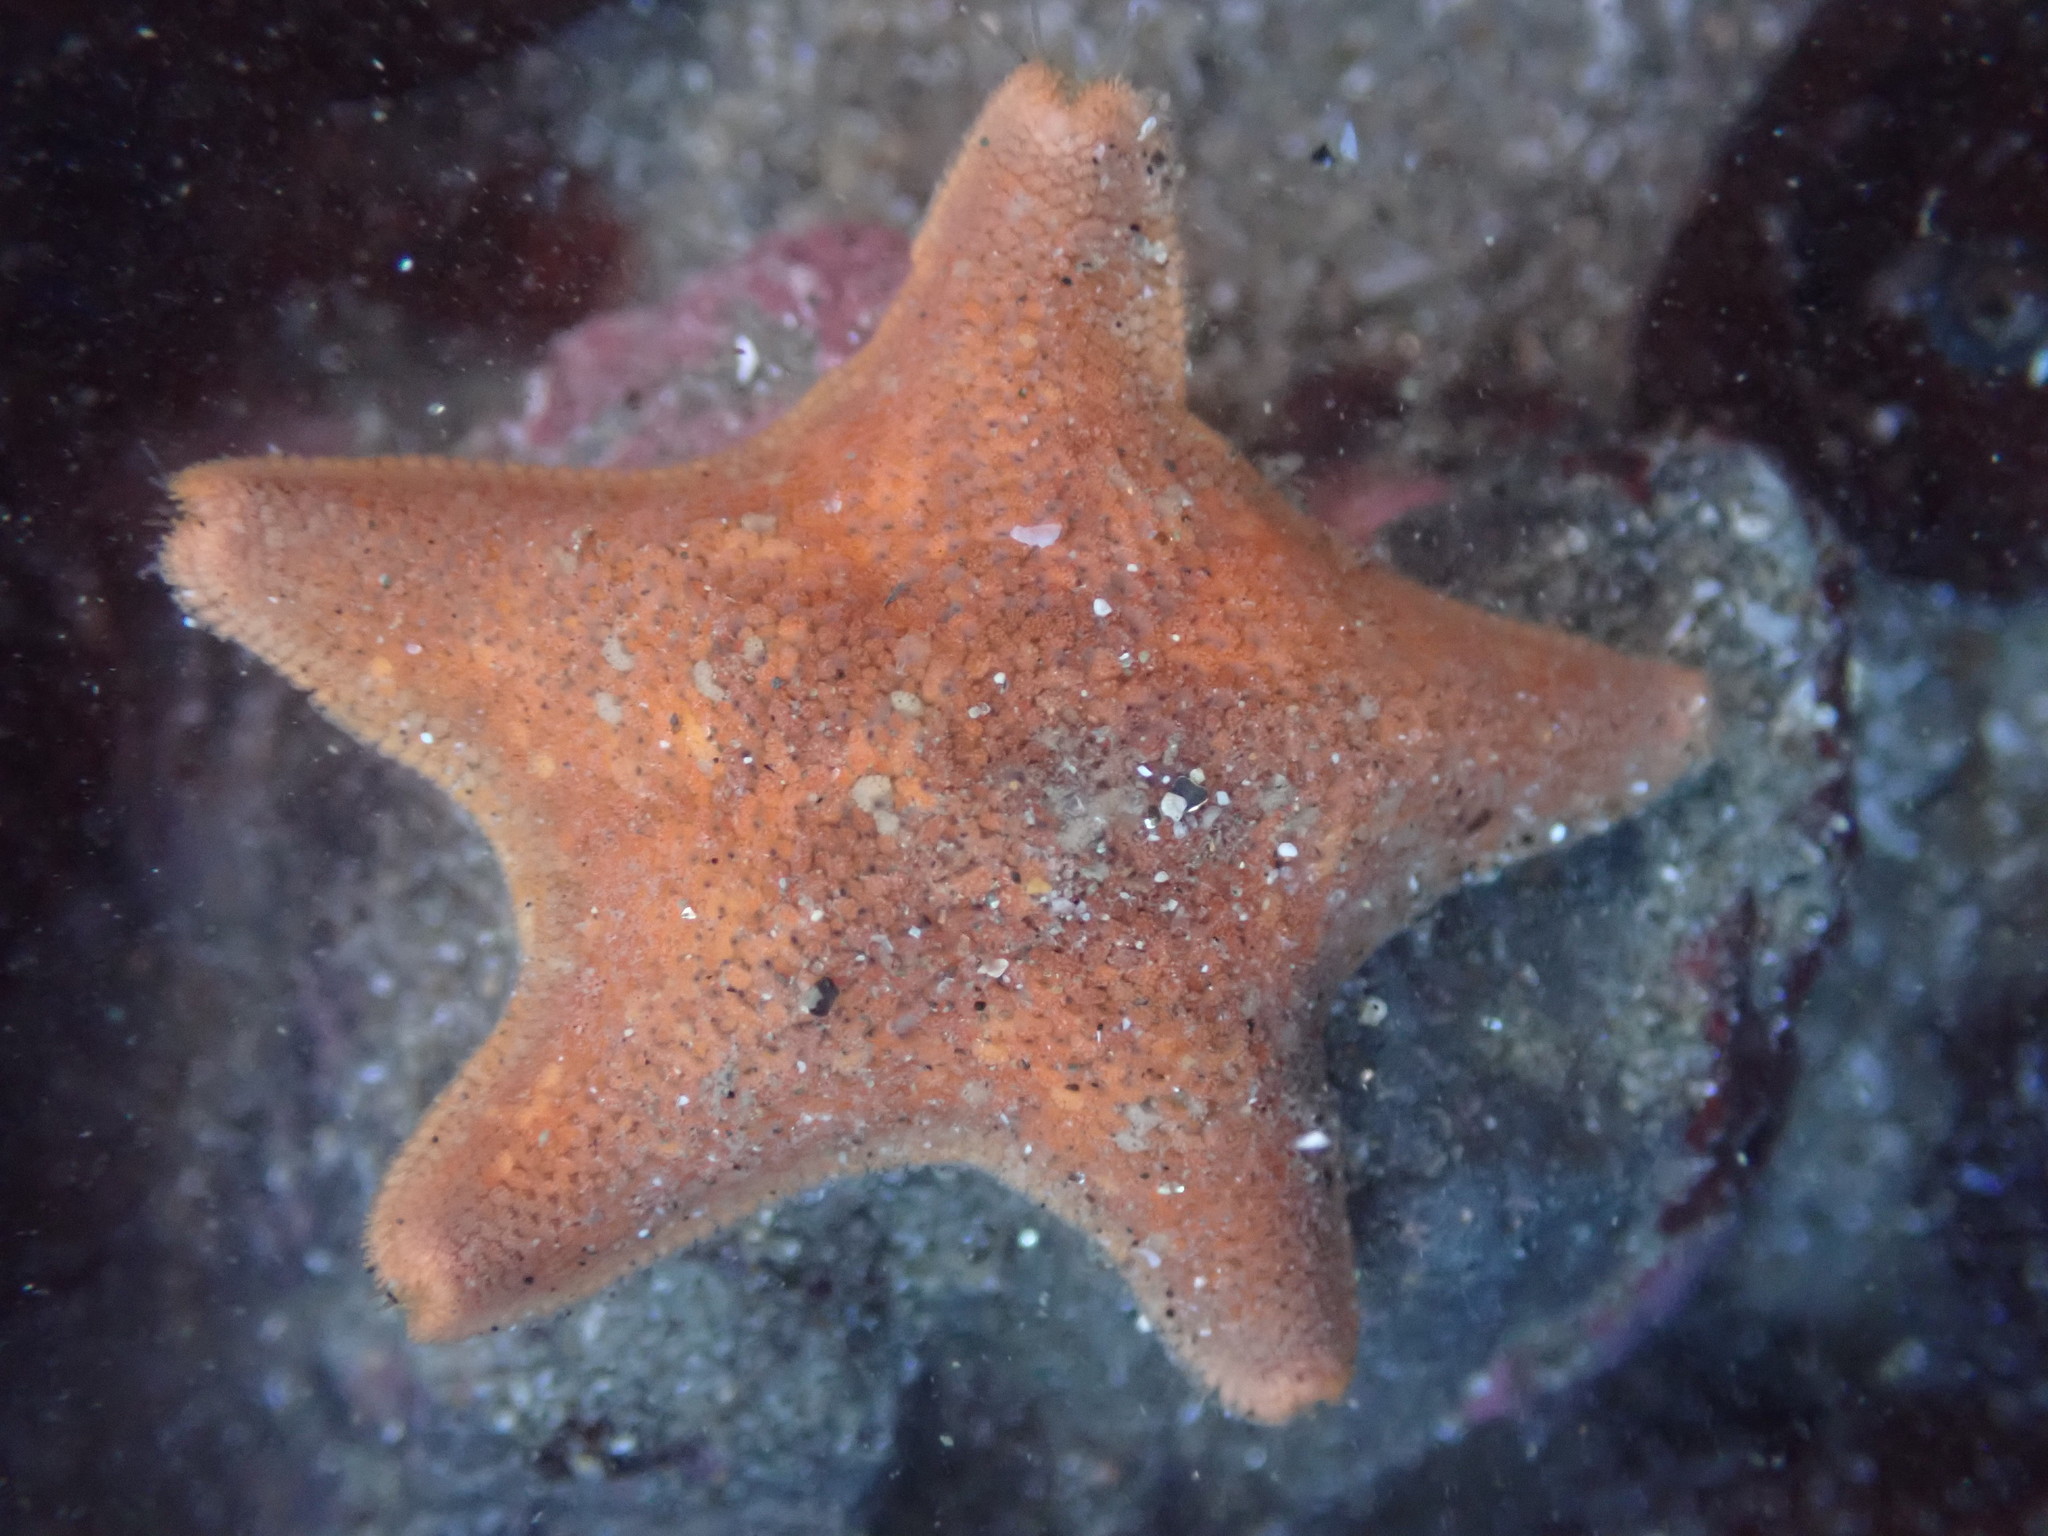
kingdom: Animalia
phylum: Echinodermata
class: Asteroidea
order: Valvatida
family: Asterinidae
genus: Patiria
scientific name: Patiria miniata
